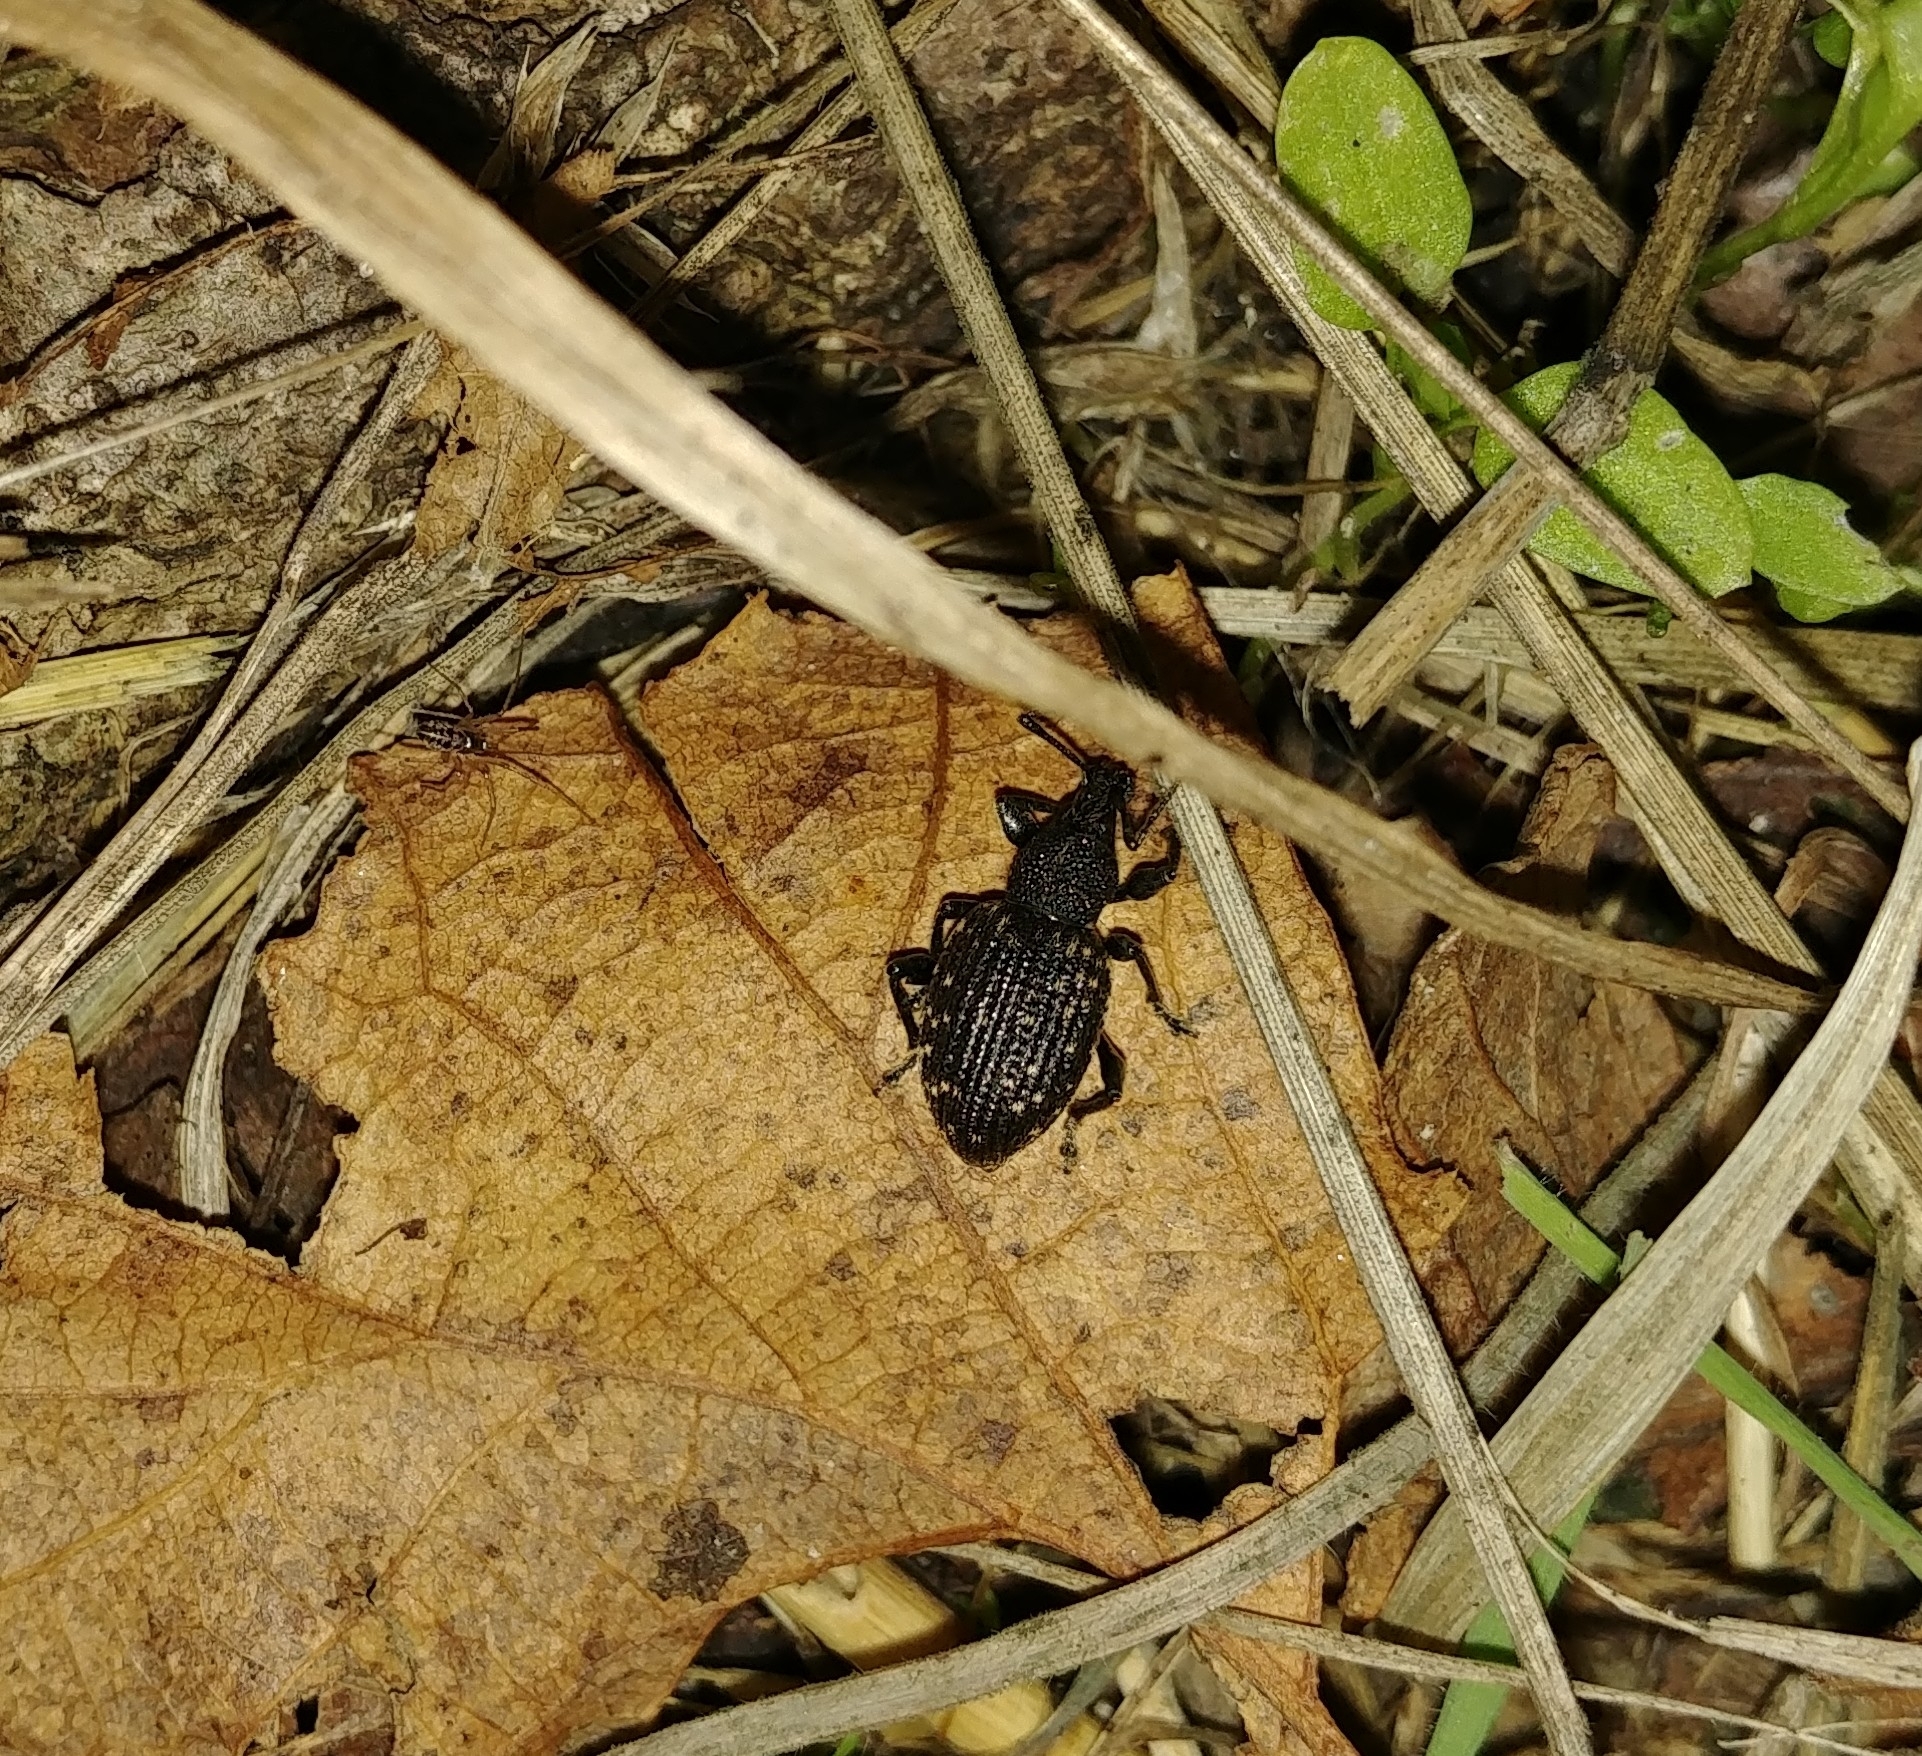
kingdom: Animalia
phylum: Arthropoda
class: Insecta
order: Coleoptera
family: Curculionidae
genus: Otiorhynchus
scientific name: Otiorhynchus sulcatus
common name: Black vine weevil
